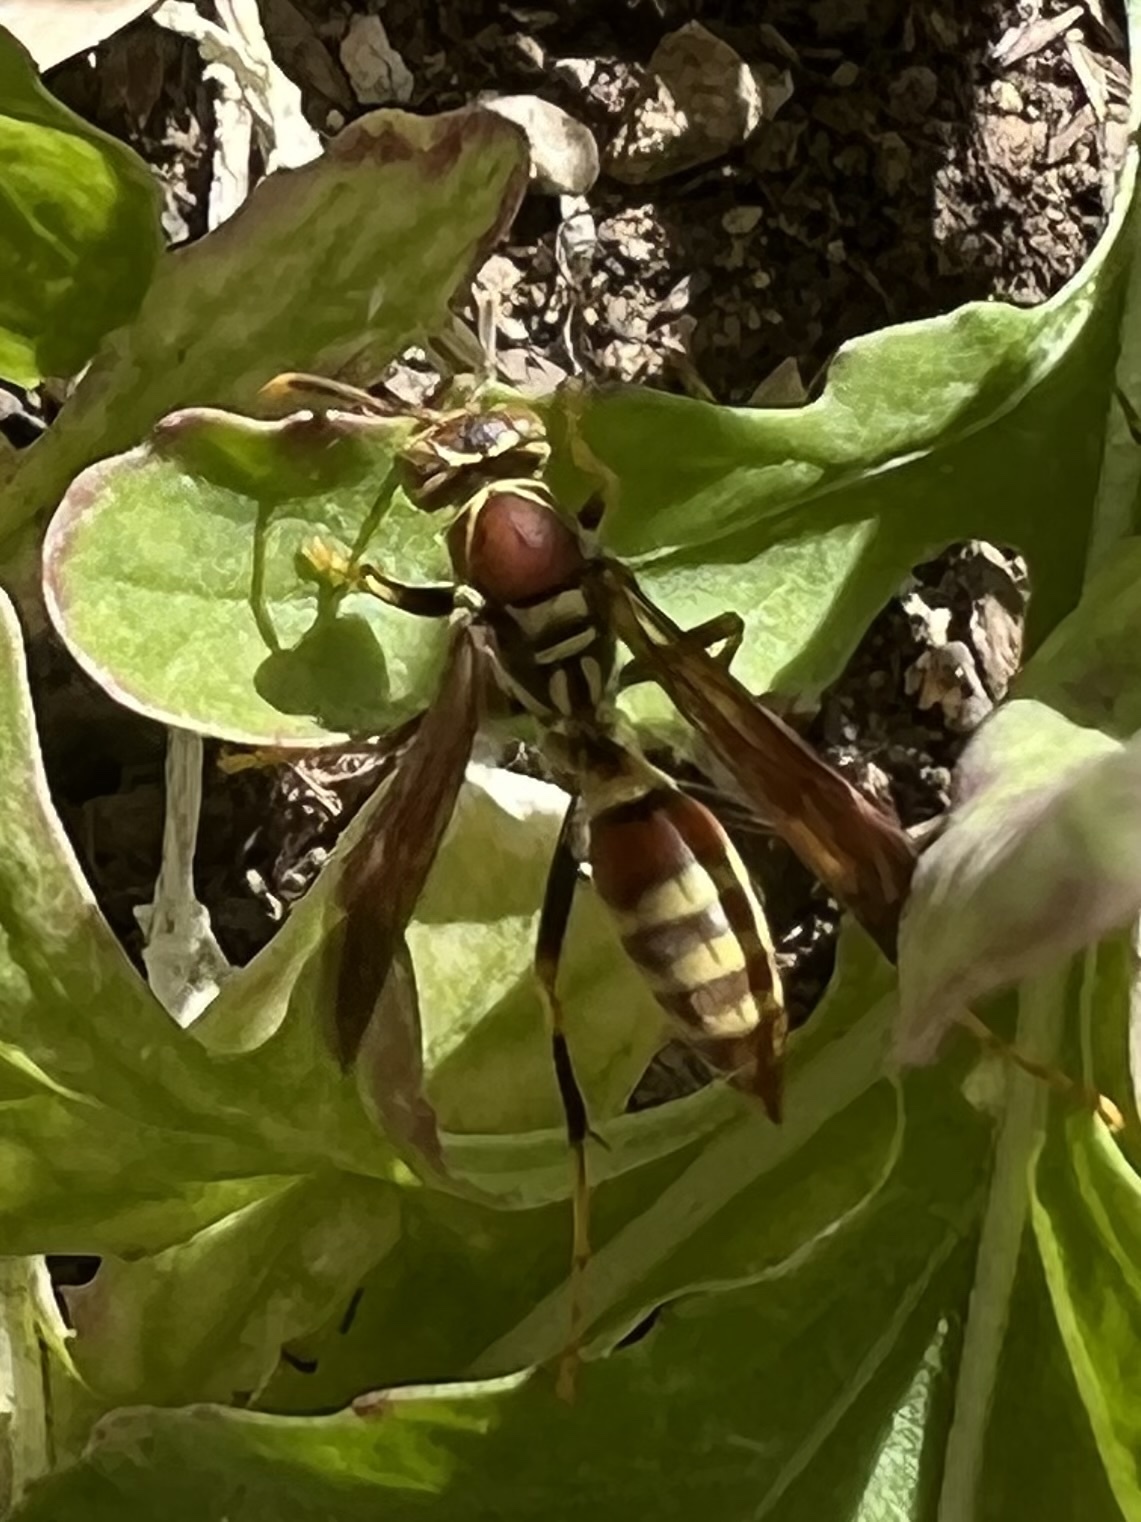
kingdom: Animalia
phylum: Arthropoda
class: Insecta
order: Hymenoptera
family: Eumenidae
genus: Polistes
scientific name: Polistes exclamans
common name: Paper wasp
